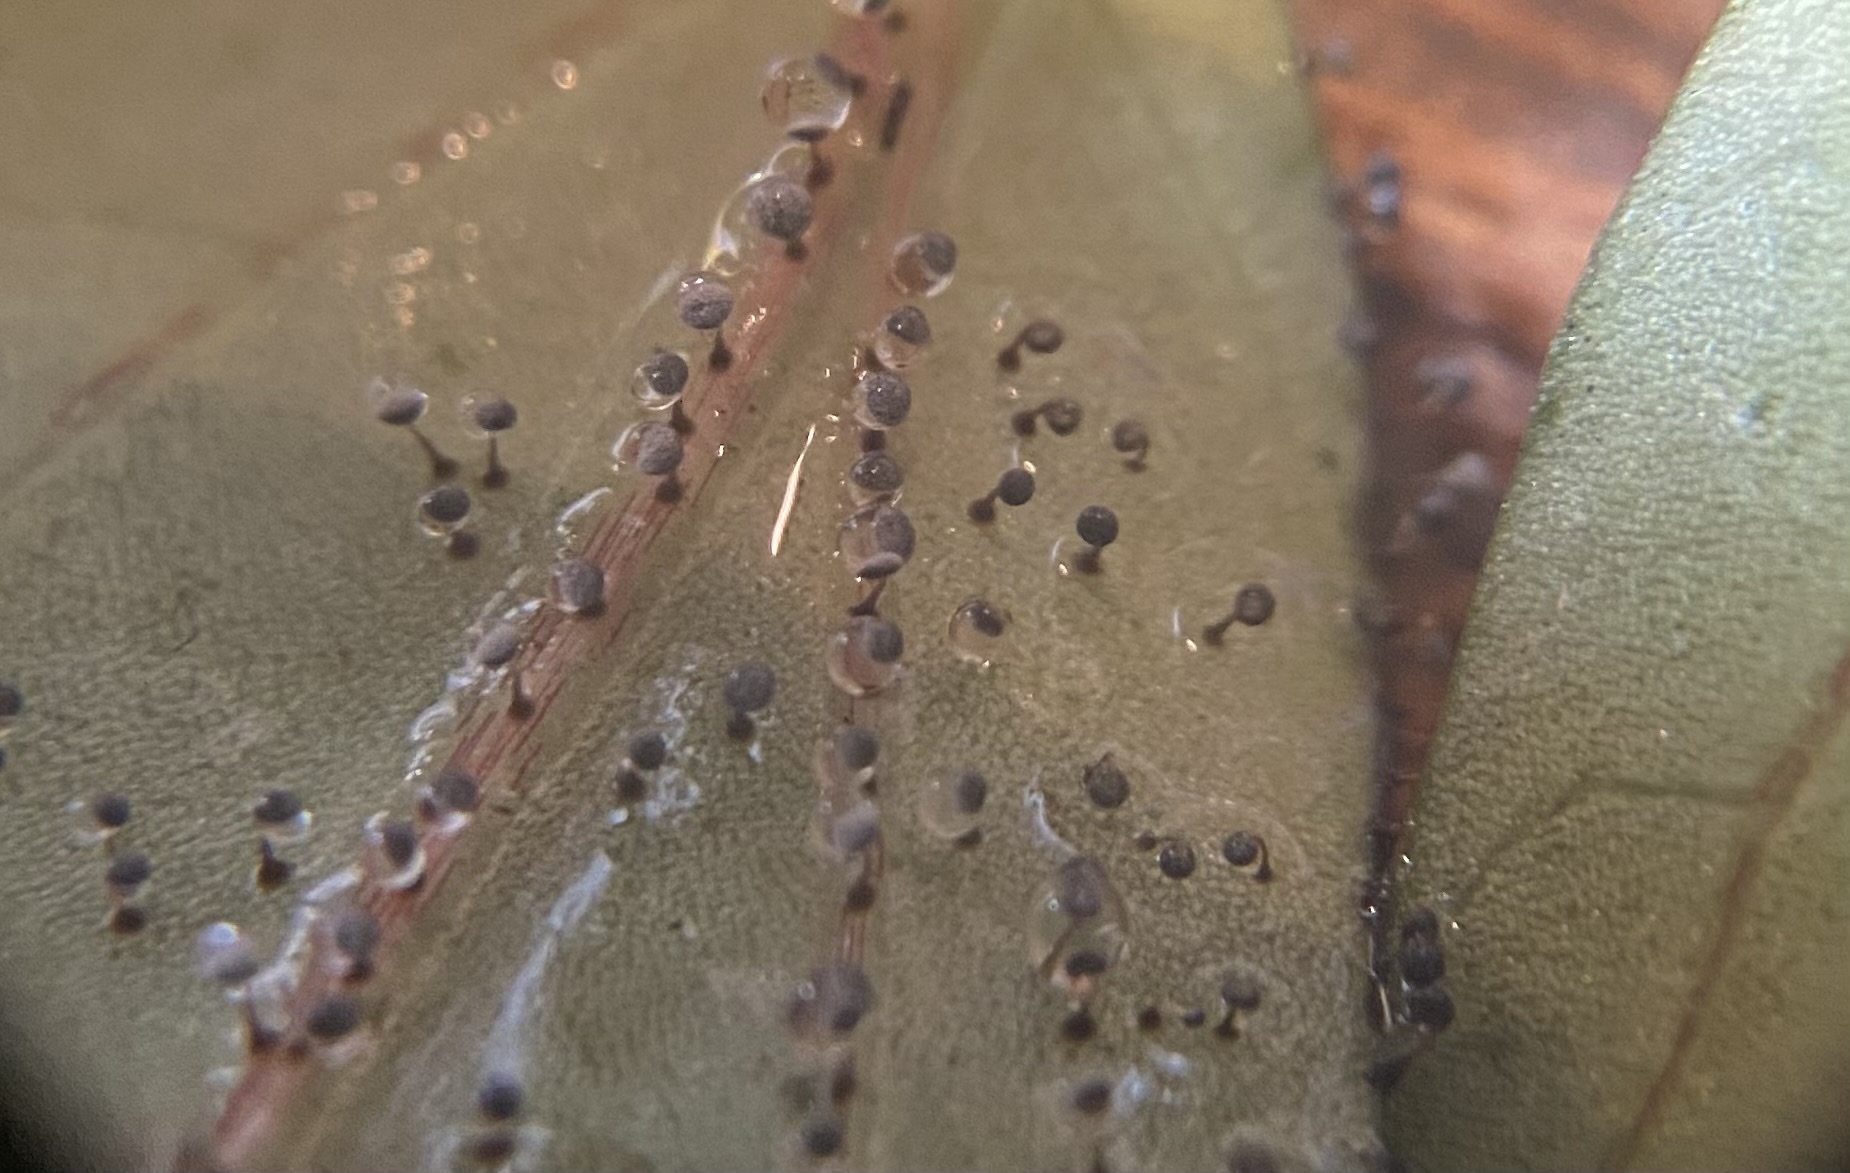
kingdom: Protozoa
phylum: Mycetozoa
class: Myxomycetes
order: Physarales
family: Physaraceae
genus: Physarum
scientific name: Physarum cinereum
